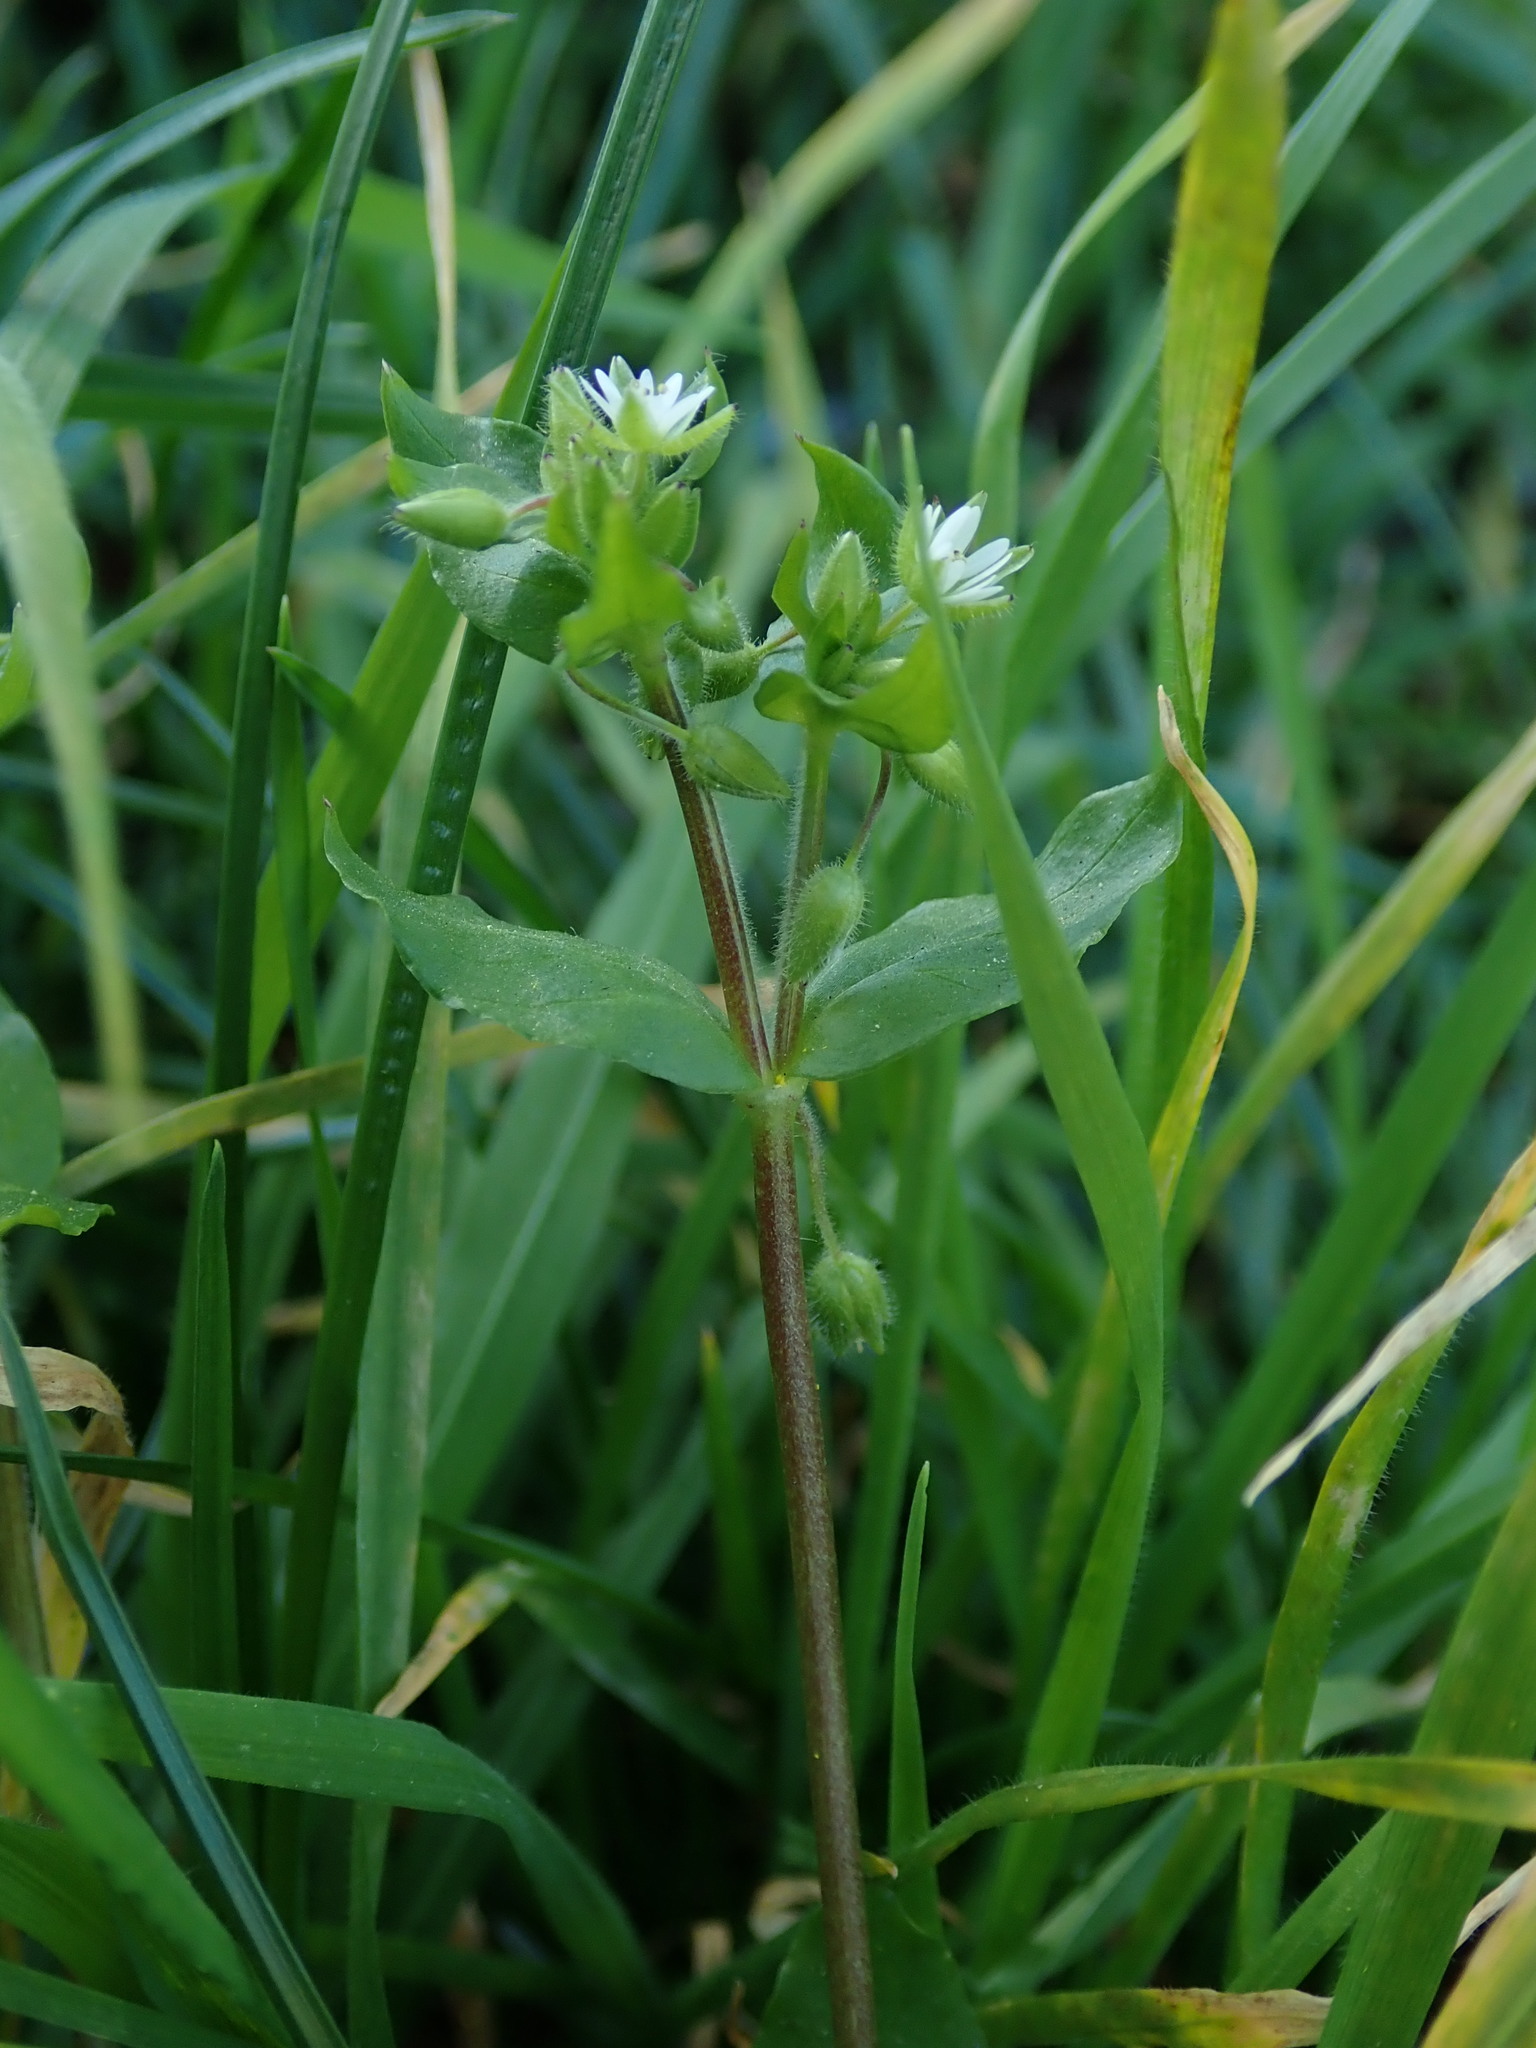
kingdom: Plantae
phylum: Tracheophyta
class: Magnoliopsida
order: Caryophyllales
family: Caryophyllaceae
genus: Stellaria
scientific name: Stellaria media
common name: Common chickweed
